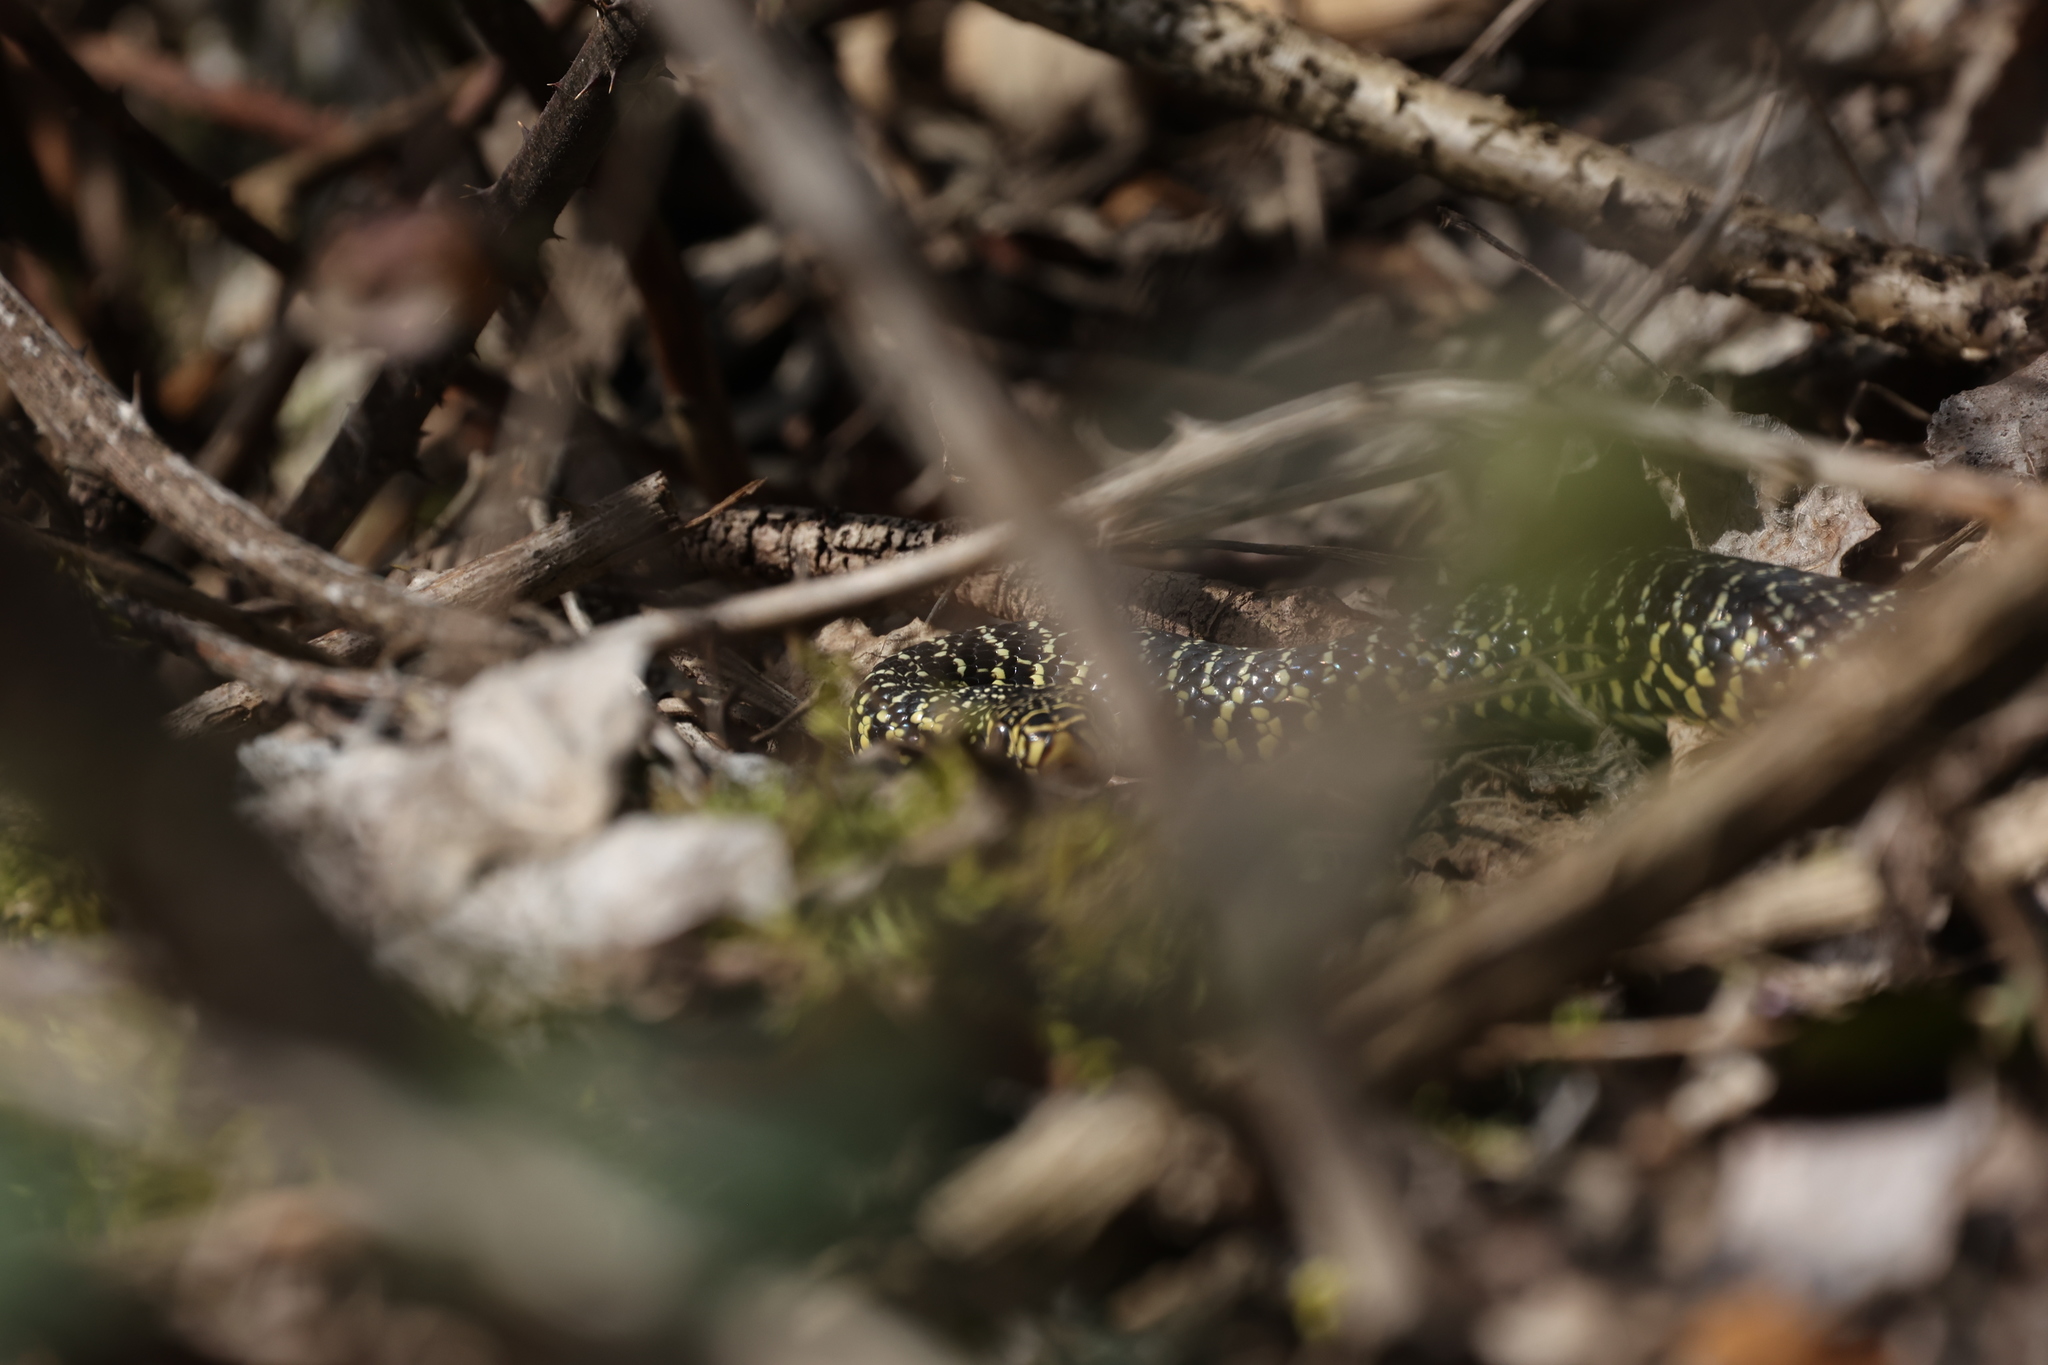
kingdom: Animalia
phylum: Chordata
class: Squamata
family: Colubridae
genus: Hierophis
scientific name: Hierophis viridiflavus
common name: Green whip snake
